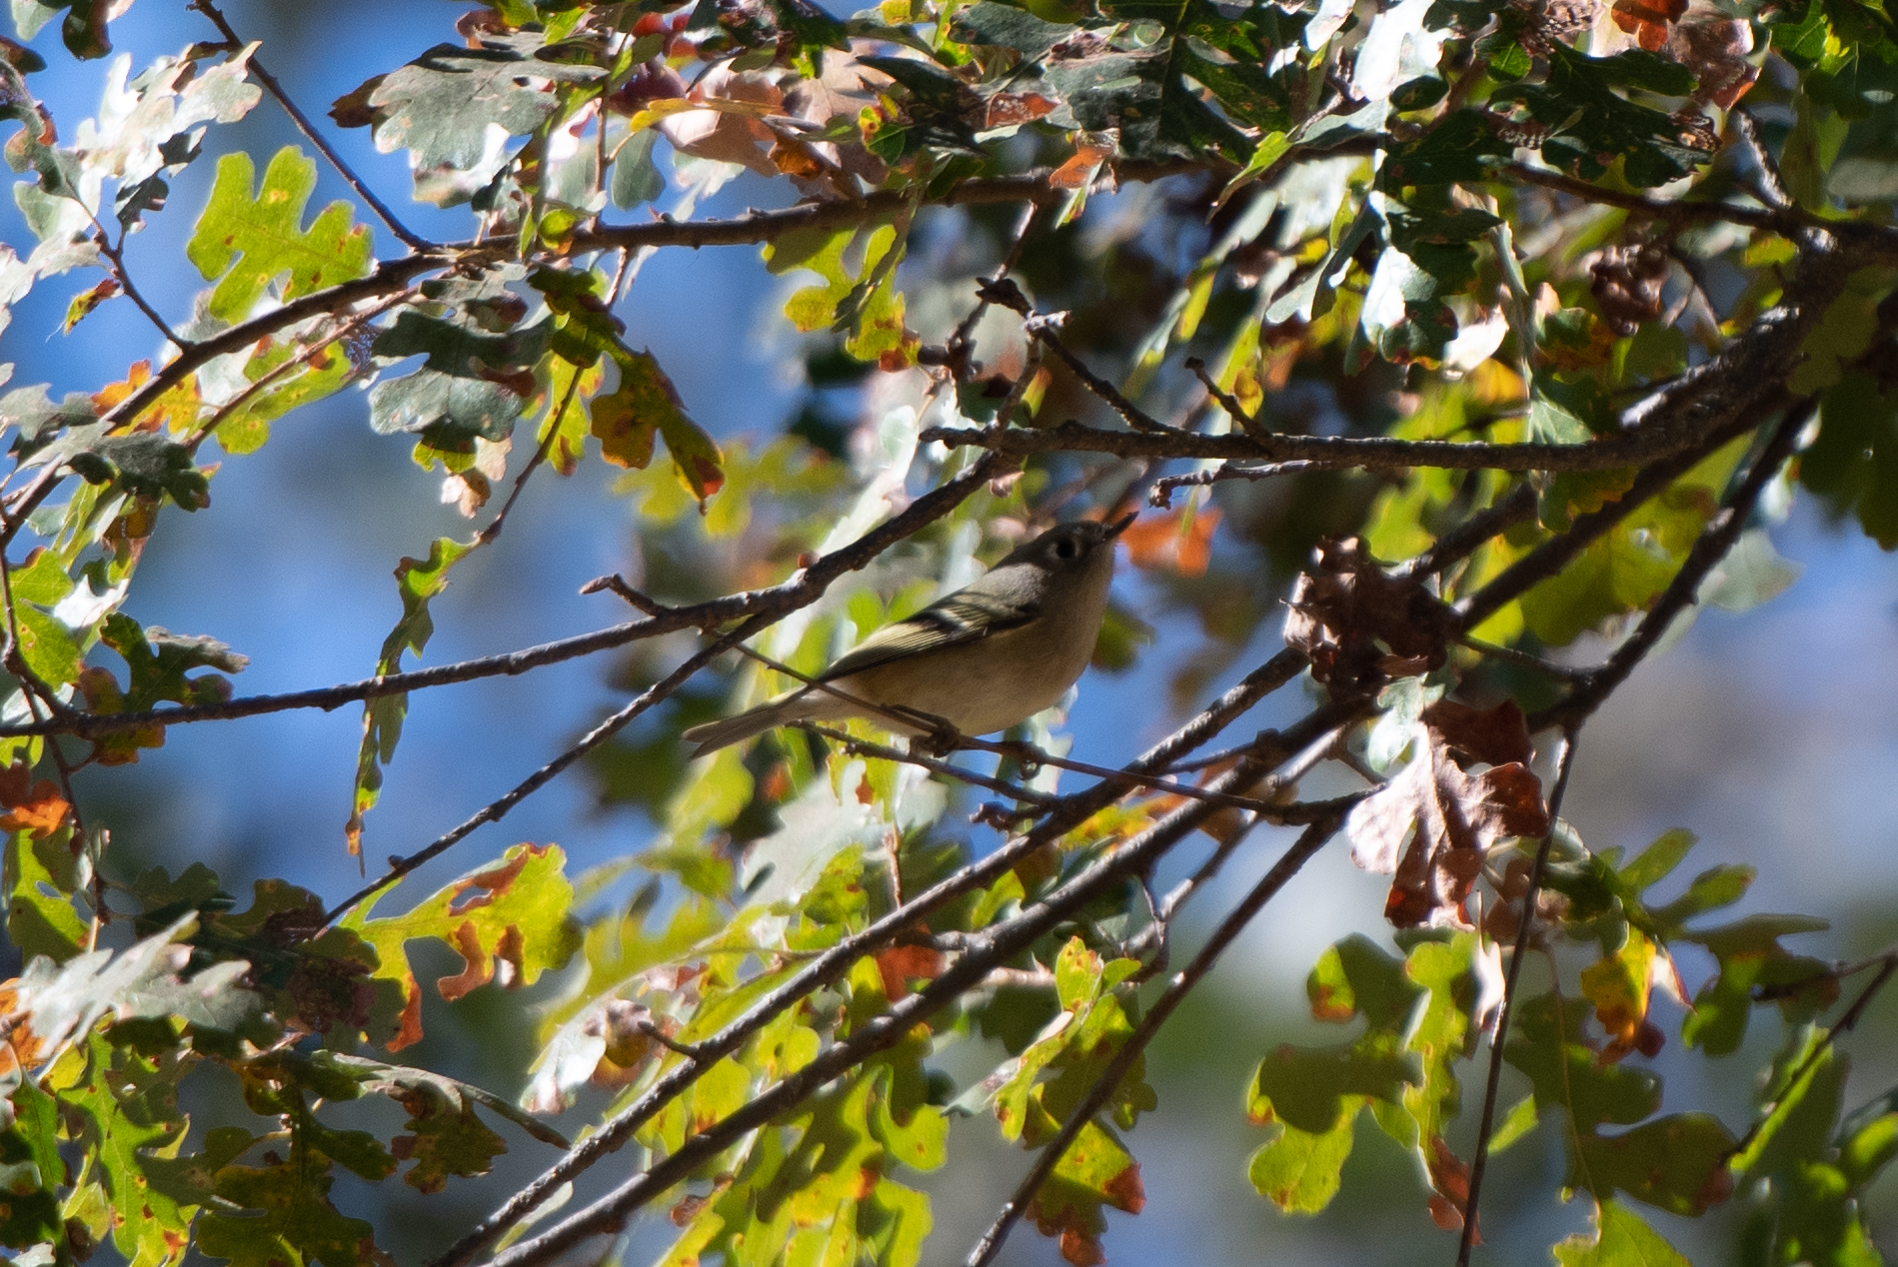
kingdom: Animalia
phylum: Chordata
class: Aves
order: Passeriformes
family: Regulidae
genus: Regulus
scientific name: Regulus calendula
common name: Ruby-crowned kinglet
